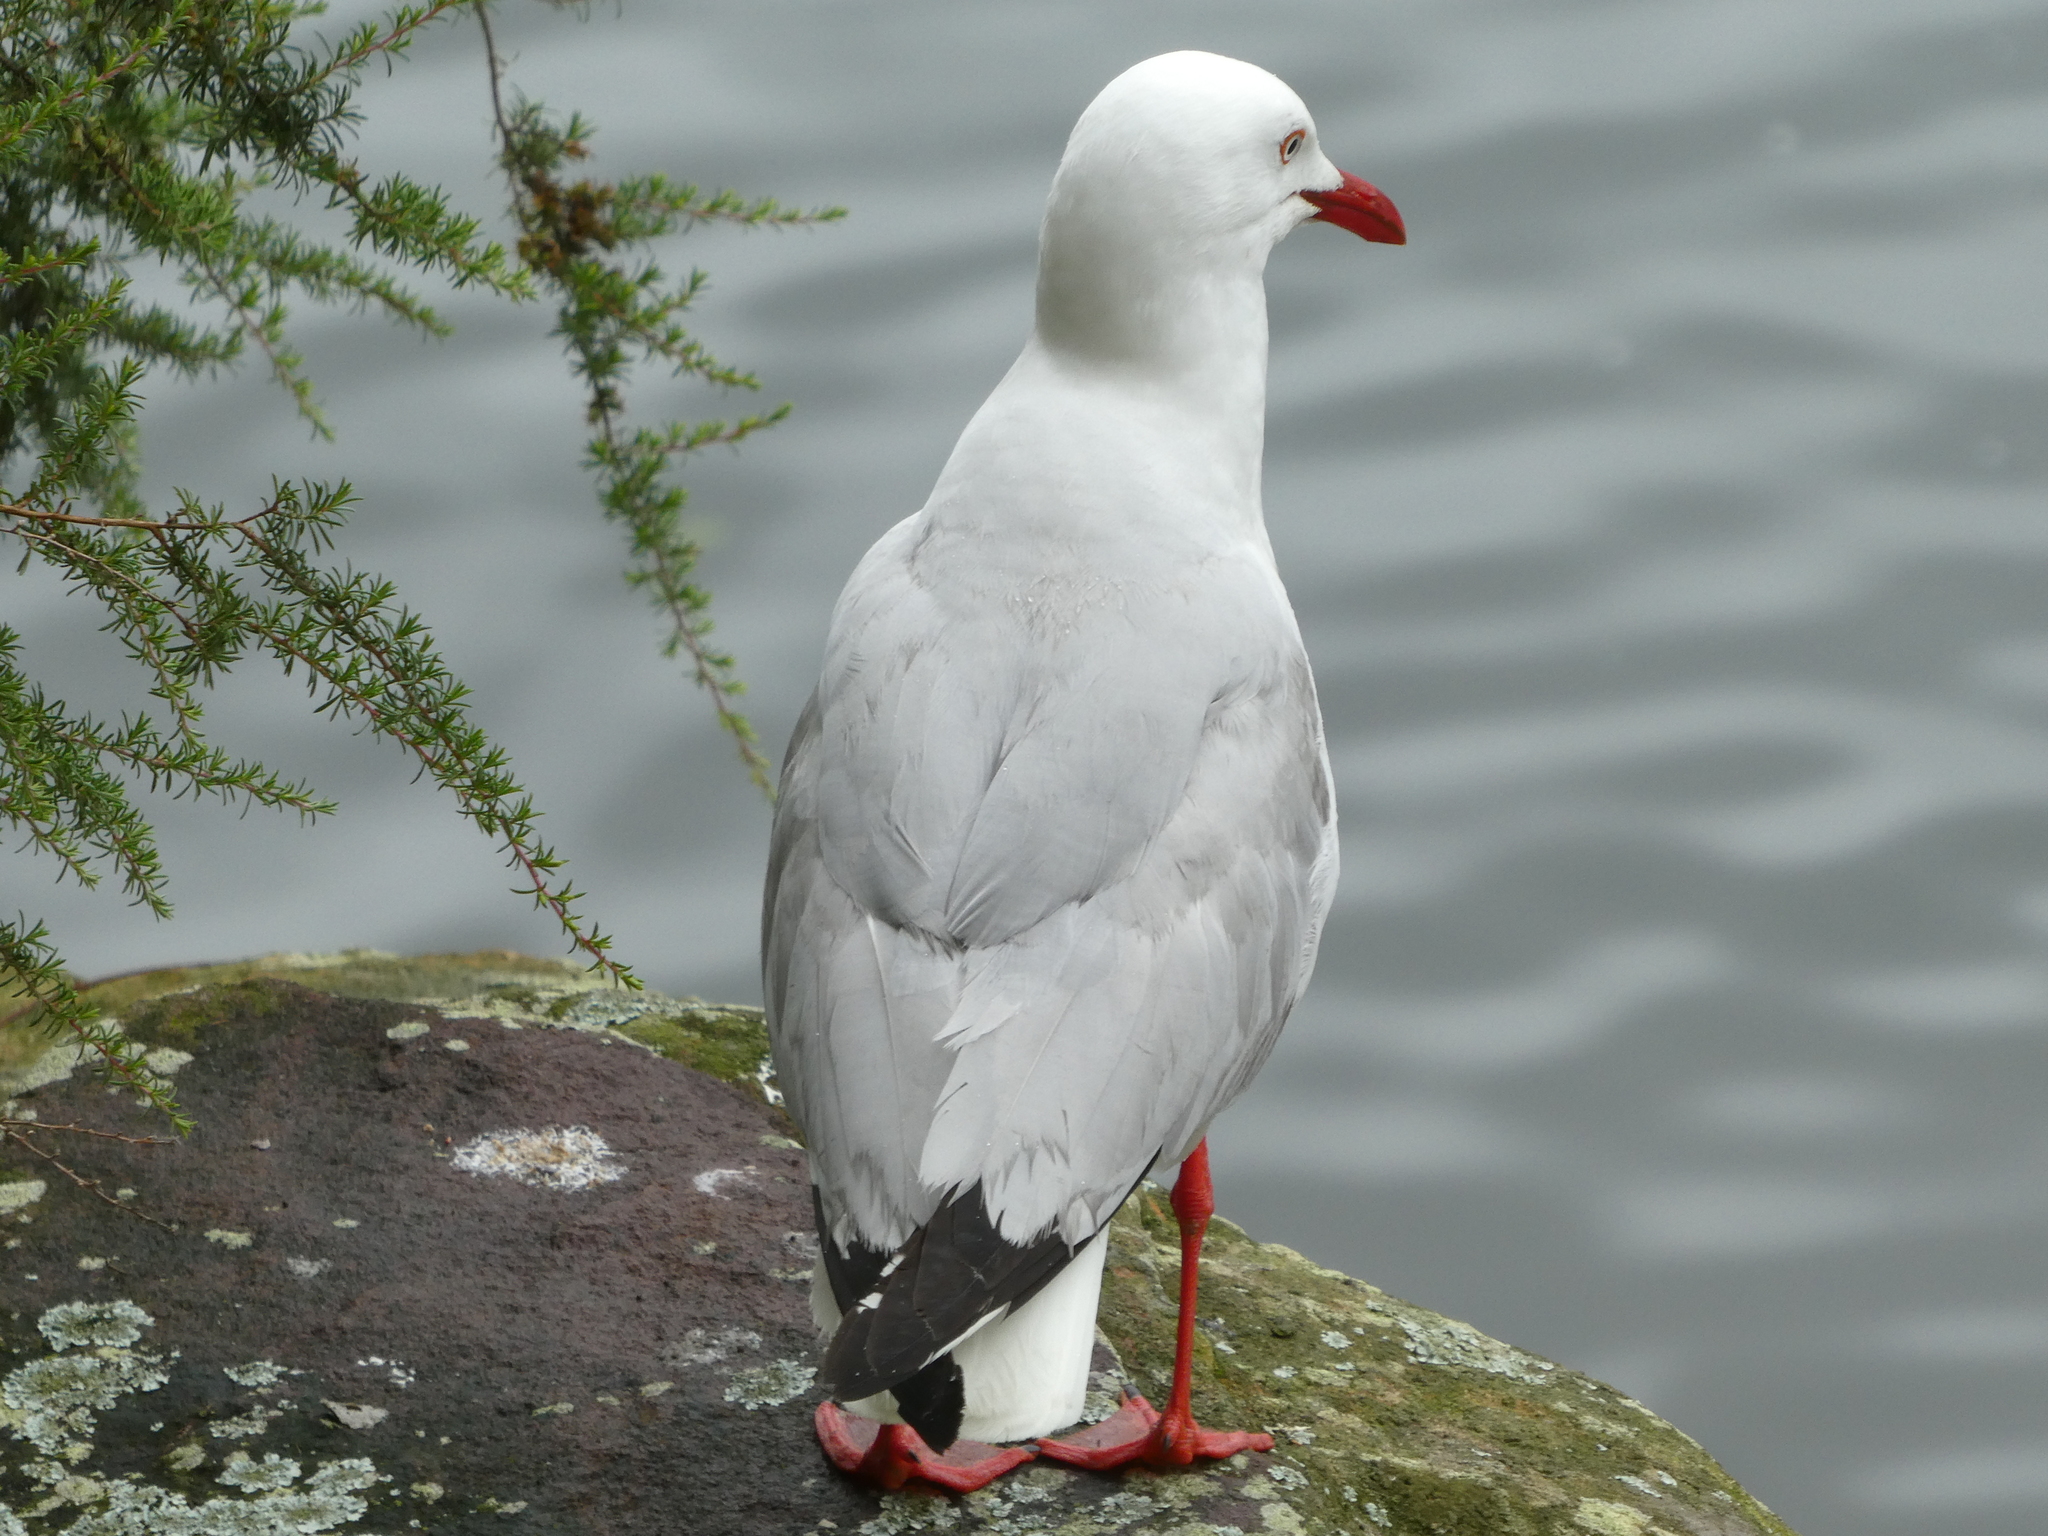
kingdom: Animalia
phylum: Chordata
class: Aves
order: Charadriiformes
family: Laridae
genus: Chroicocephalus
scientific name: Chroicocephalus novaehollandiae
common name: Silver gull
